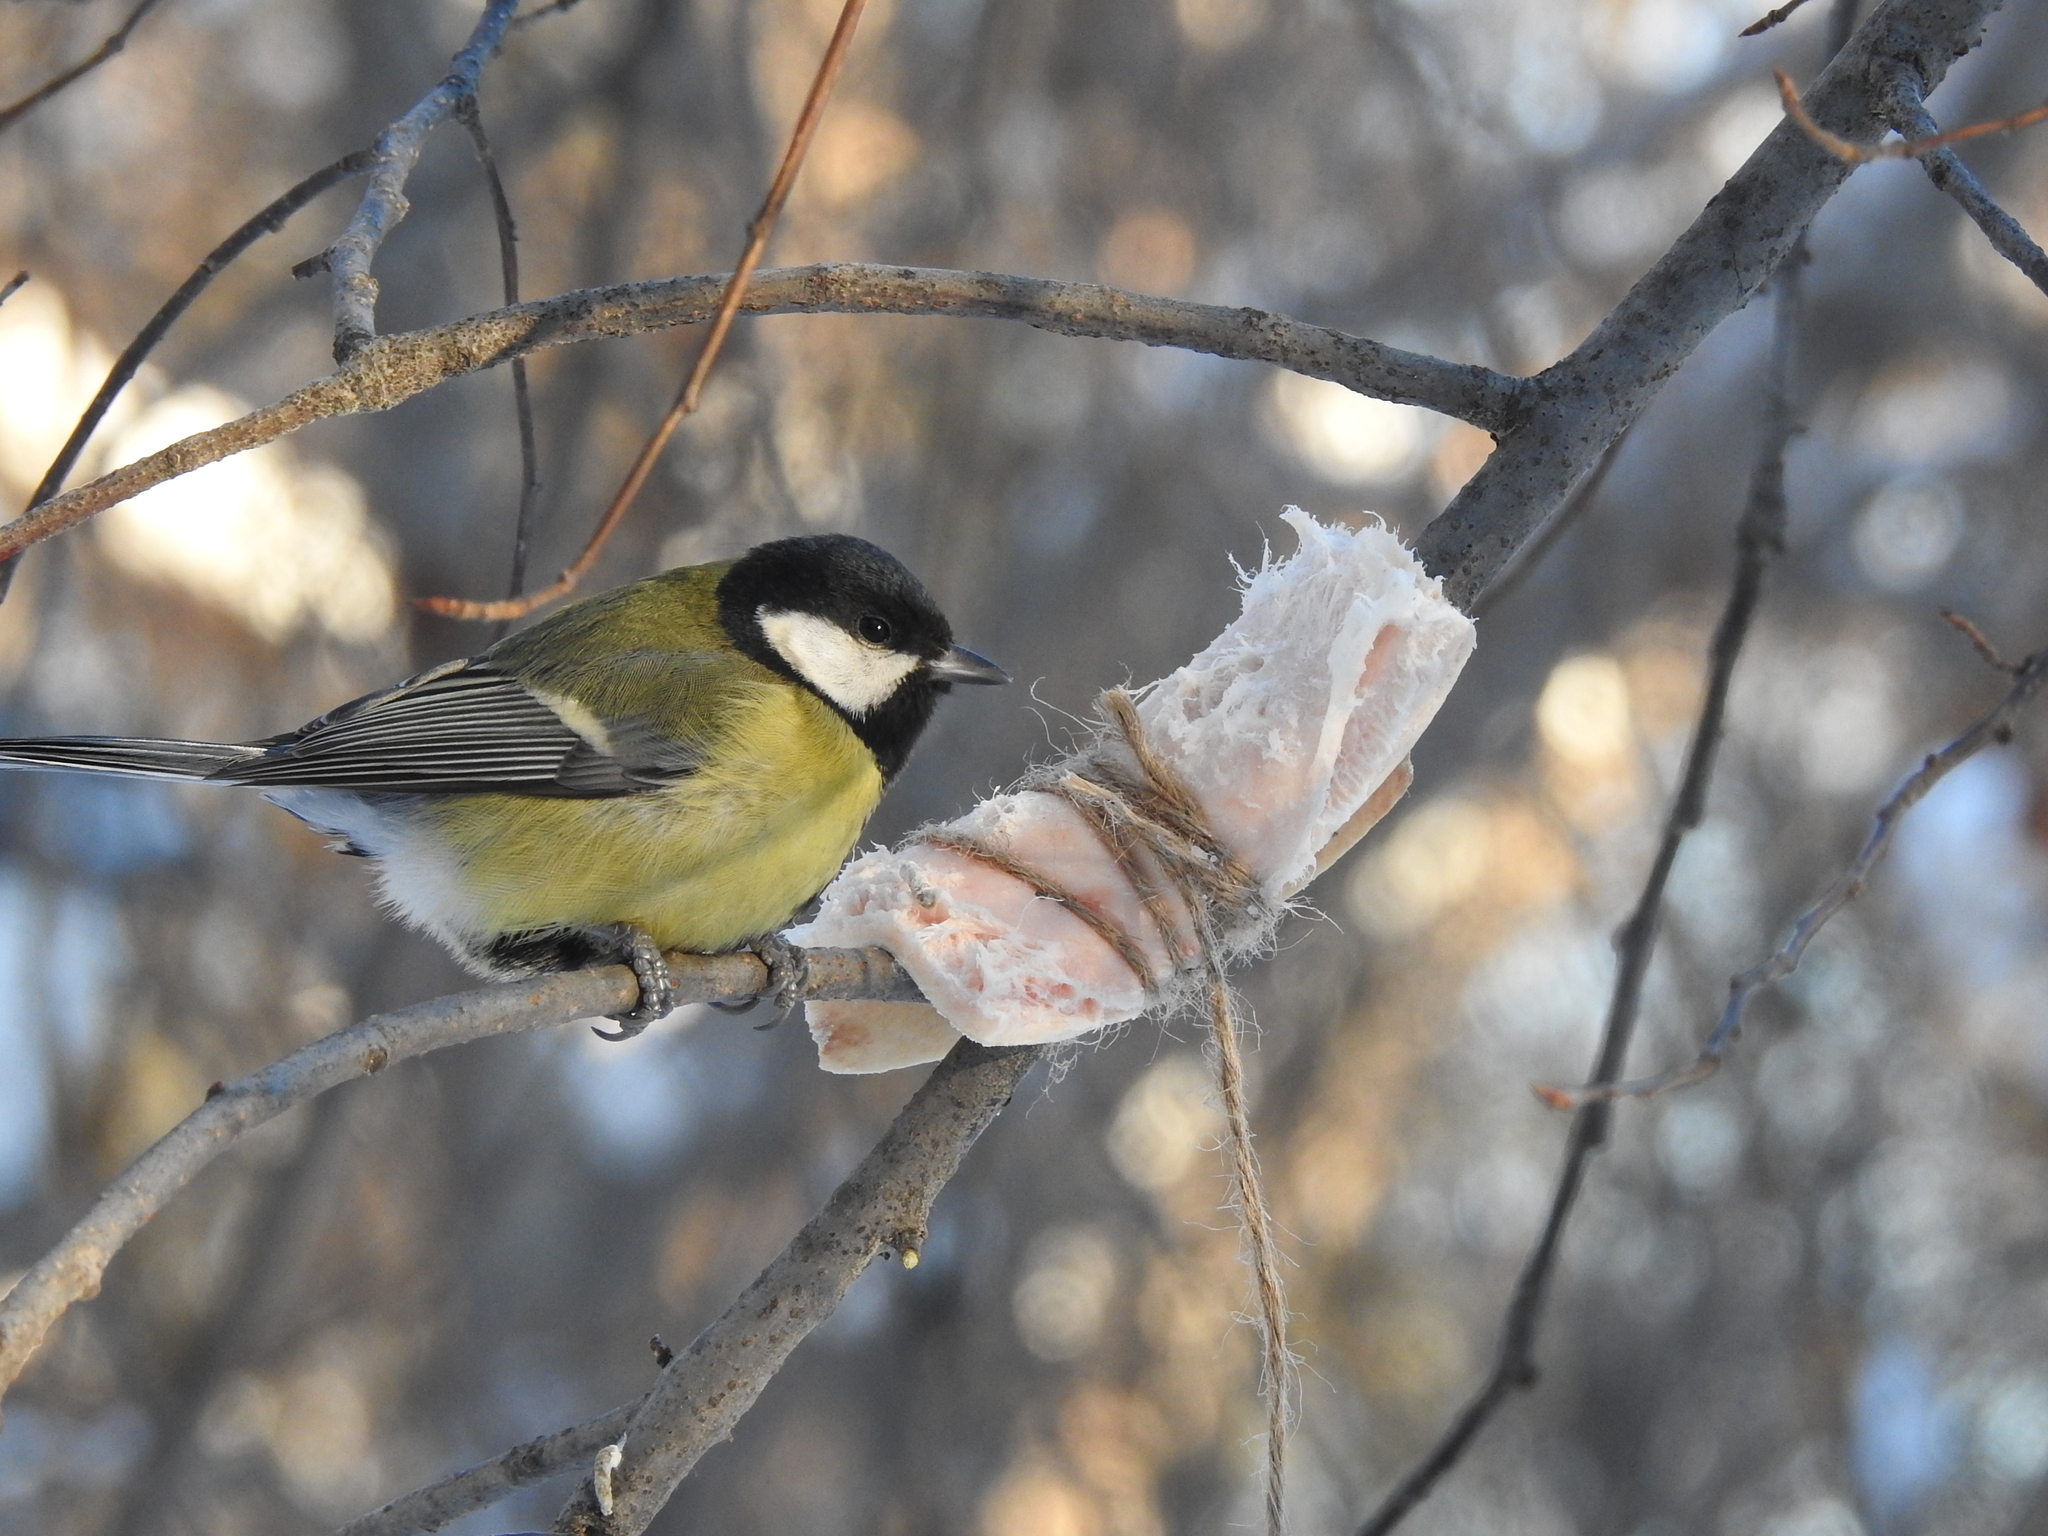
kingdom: Animalia
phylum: Chordata
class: Aves
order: Passeriformes
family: Paridae
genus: Parus
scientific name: Parus major
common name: Great tit
